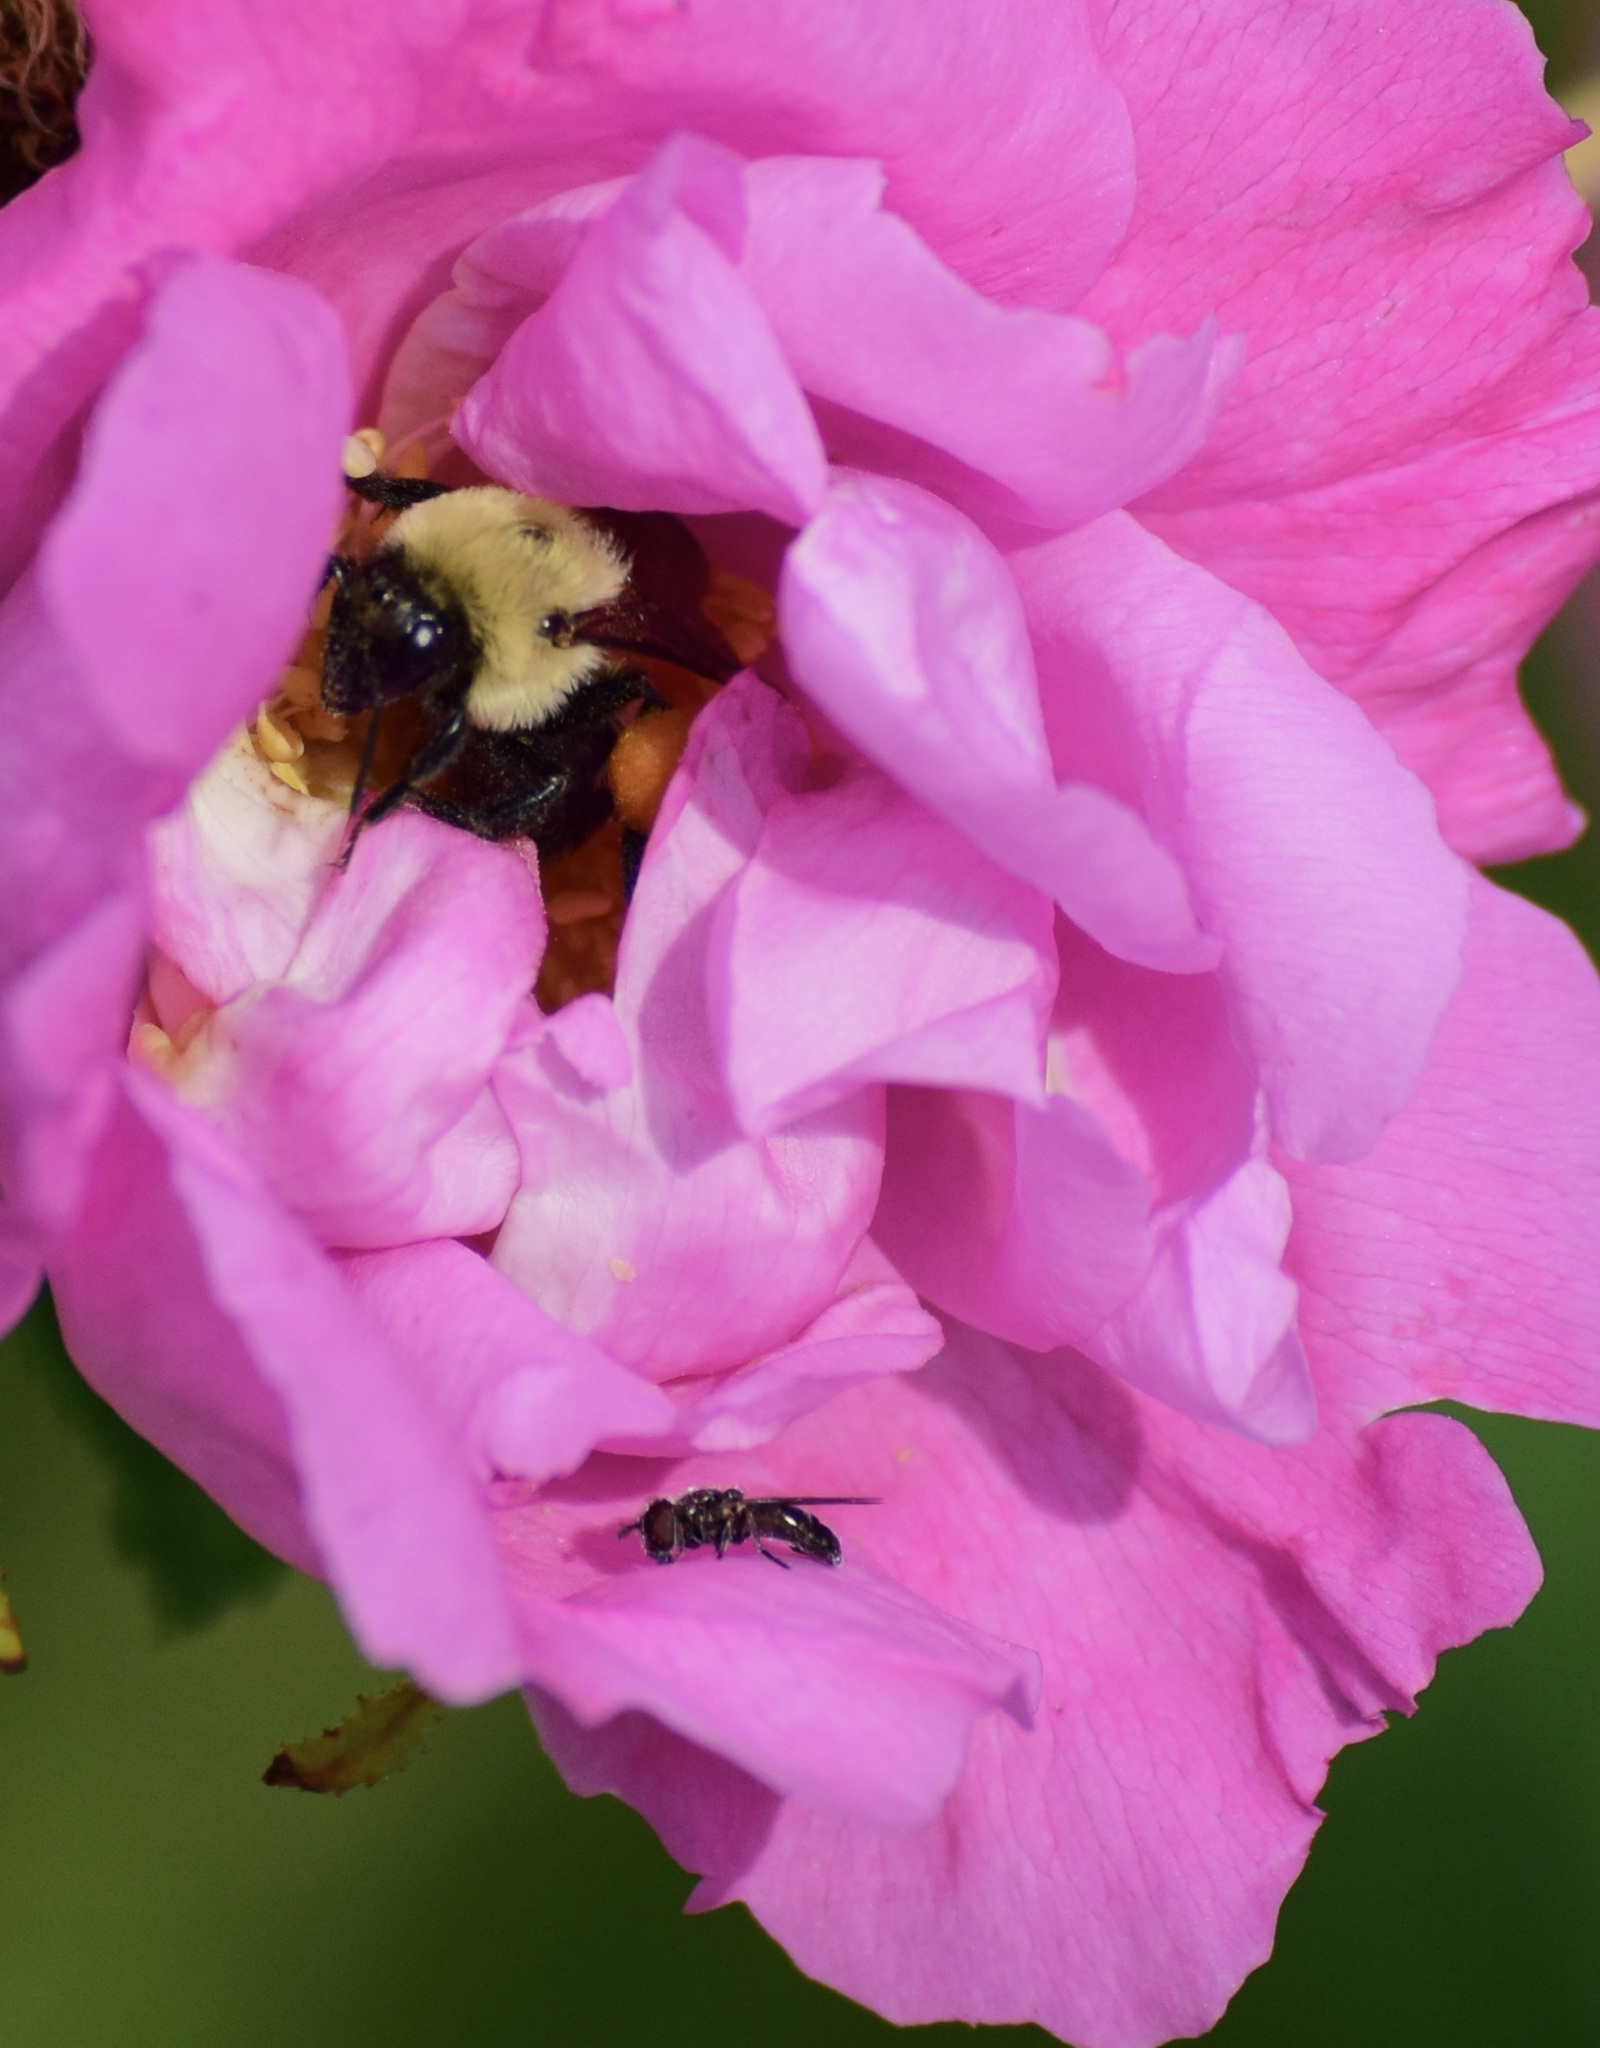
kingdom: Animalia
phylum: Arthropoda
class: Insecta
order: Hymenoptera
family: Apidae
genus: Bombus
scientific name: Bombus griseocollis
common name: Brown-belted bumble bee
